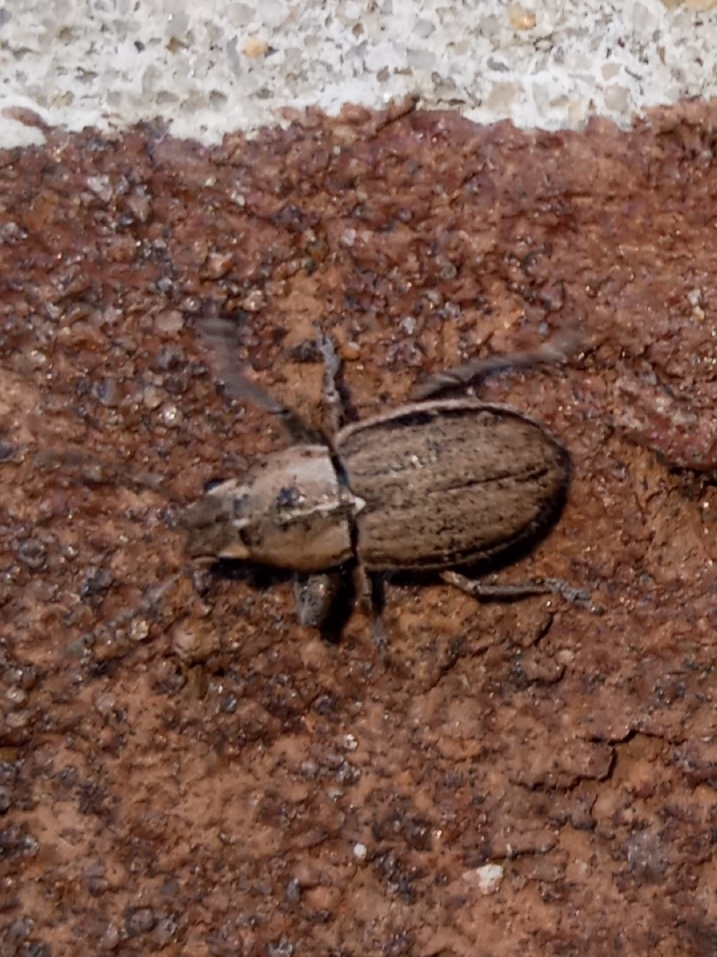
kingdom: Animalia
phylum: Arthropoda
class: Insecta
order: Coleoptera
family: Curculionidae
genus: Naupactus
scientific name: Naupactus peregrinus
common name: Whitefringed beetle
